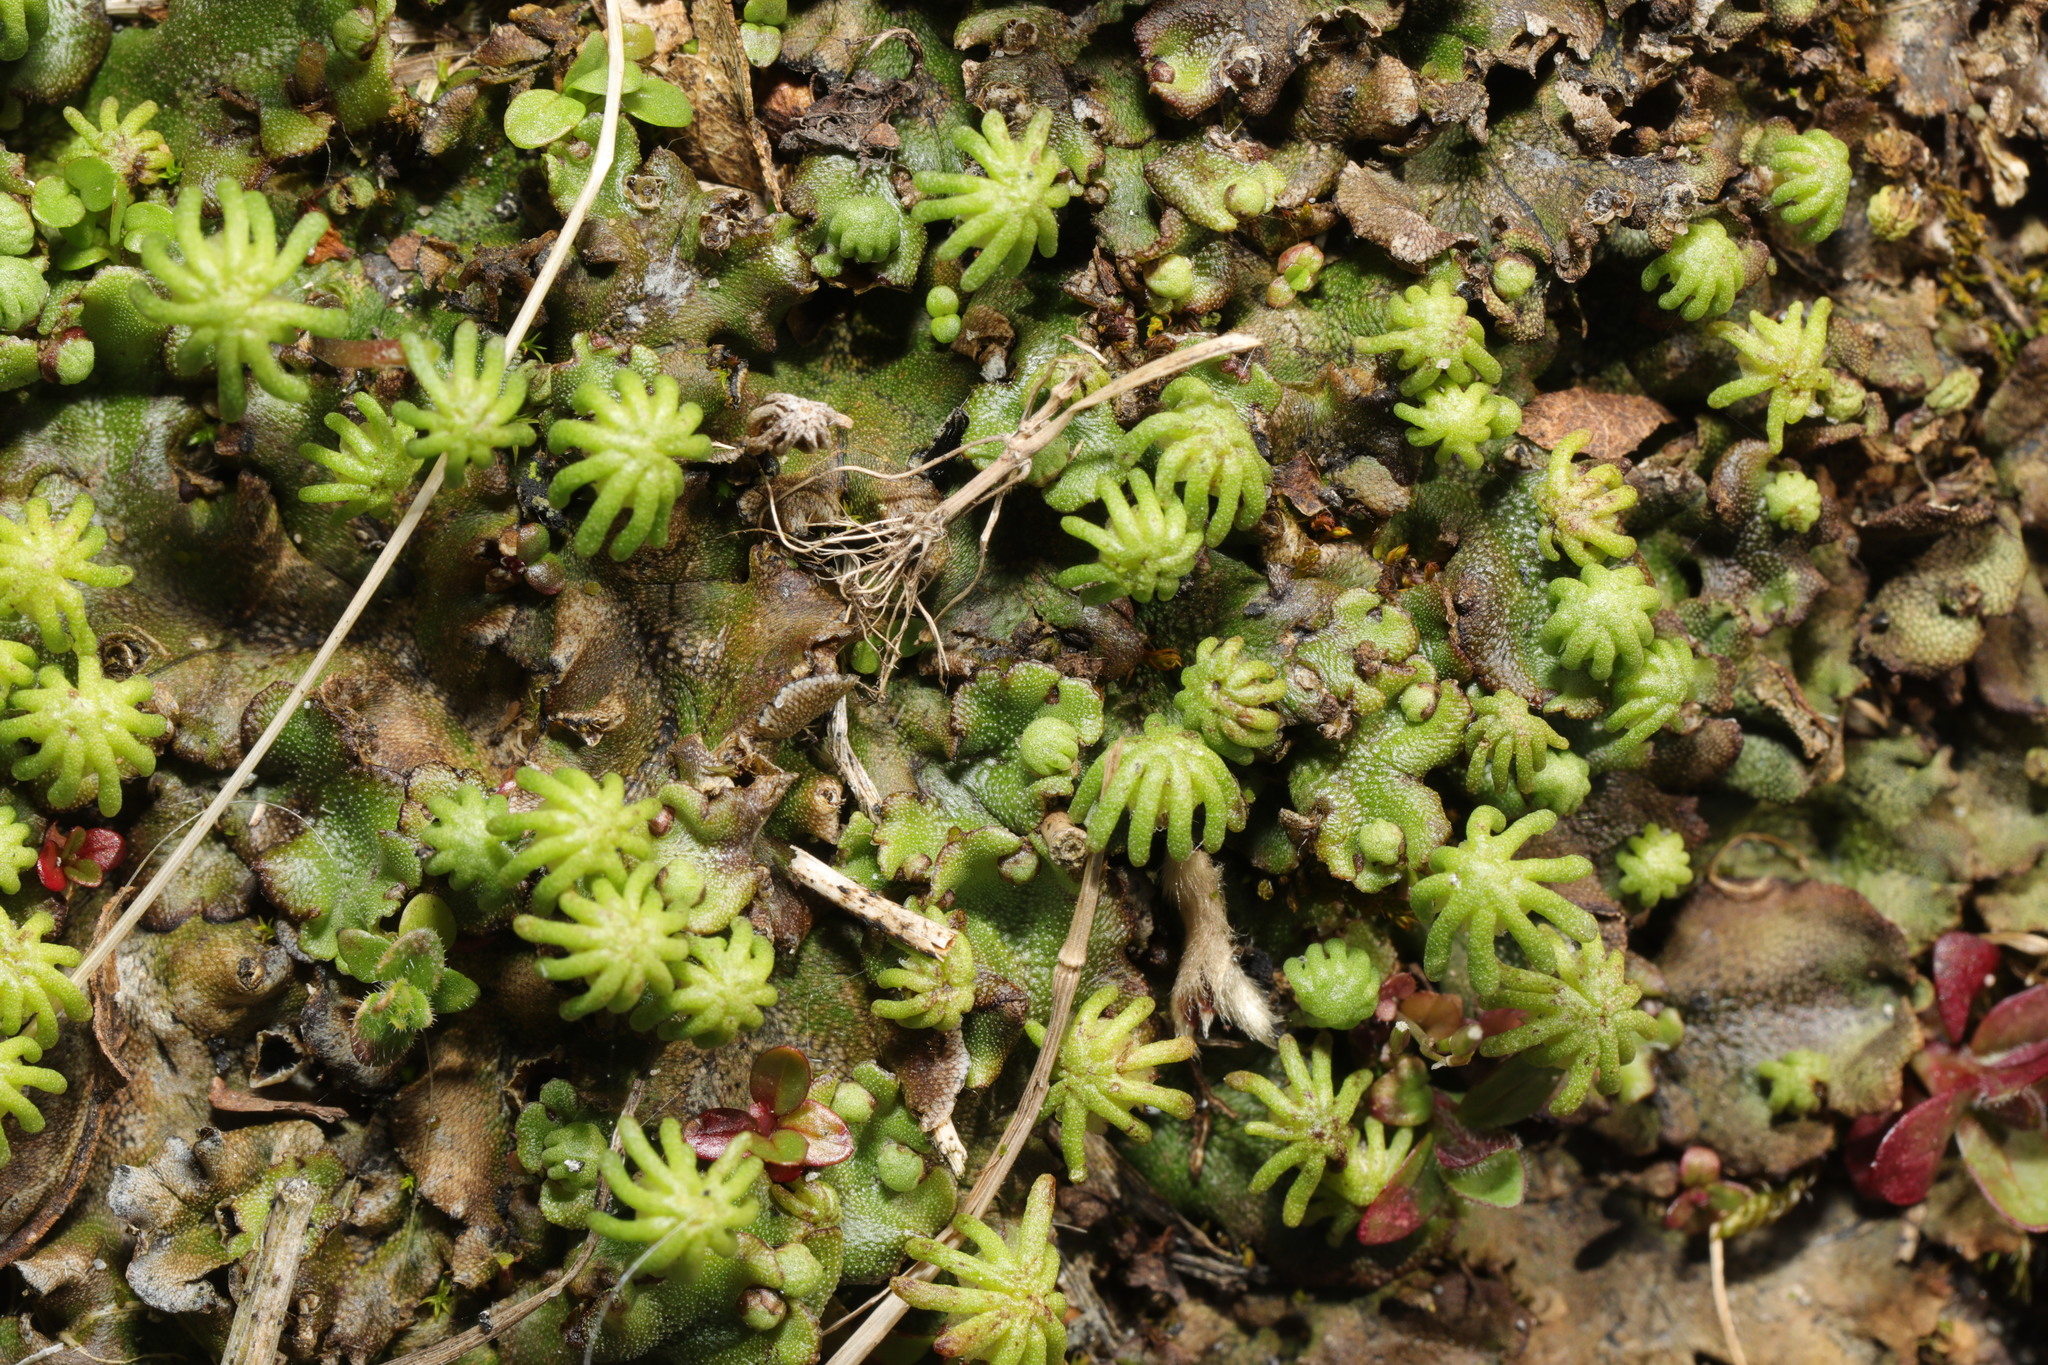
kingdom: Plantae
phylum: Marchantiophyta
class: Marchantiopsida
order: Marchantiales
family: Marchantiaceae
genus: Marchantia
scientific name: Marchantia polymorpha
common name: Common liverwort
